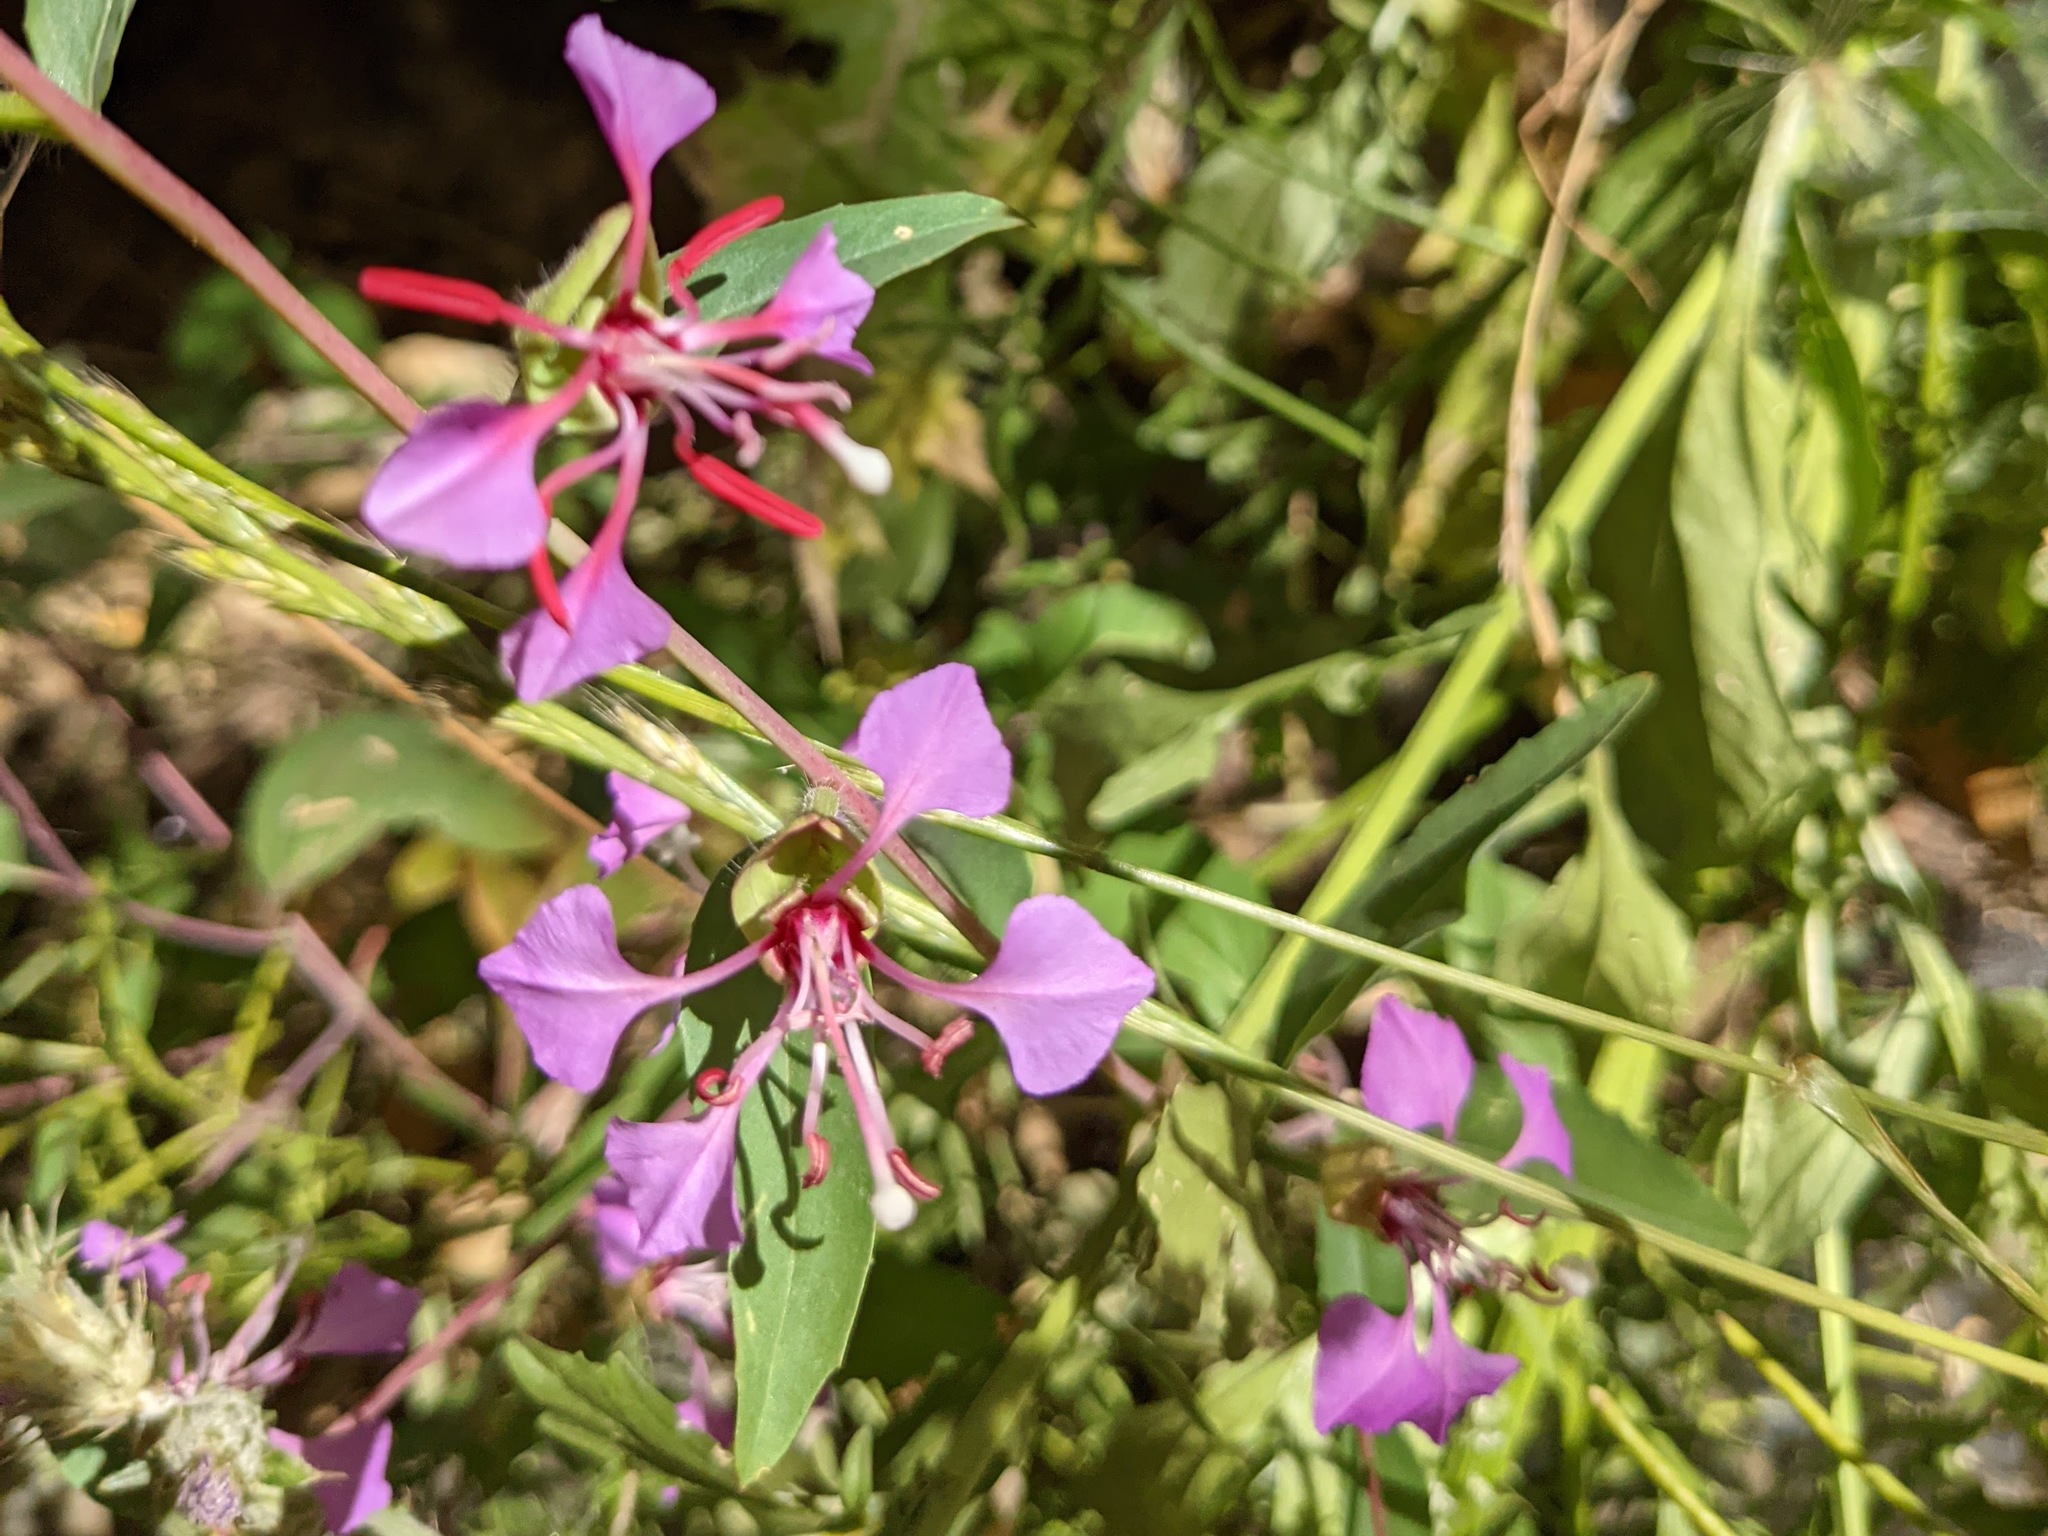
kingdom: Plantae
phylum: Tracheophyta
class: Magnoliopsida
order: Myrtales
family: Onagraceae
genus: Clarkia
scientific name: Clarkia unguiculata
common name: Clarkia
